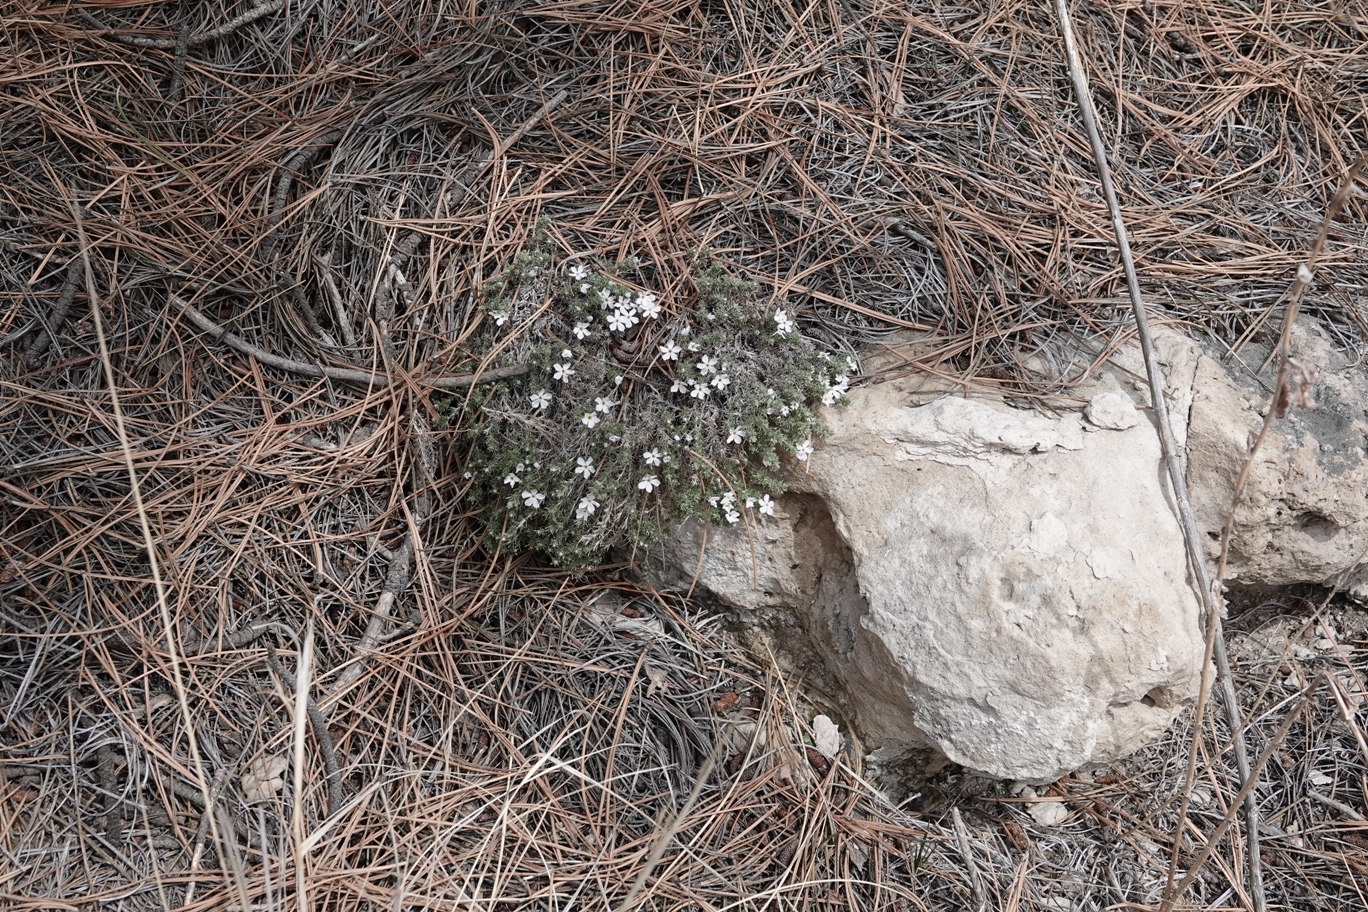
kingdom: Plantae
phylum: Tracheophyta
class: Magnoliopsida
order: Ericales
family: Polemoniaceae
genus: Phlox
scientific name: Phlox hoodii
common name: Moss phlox
